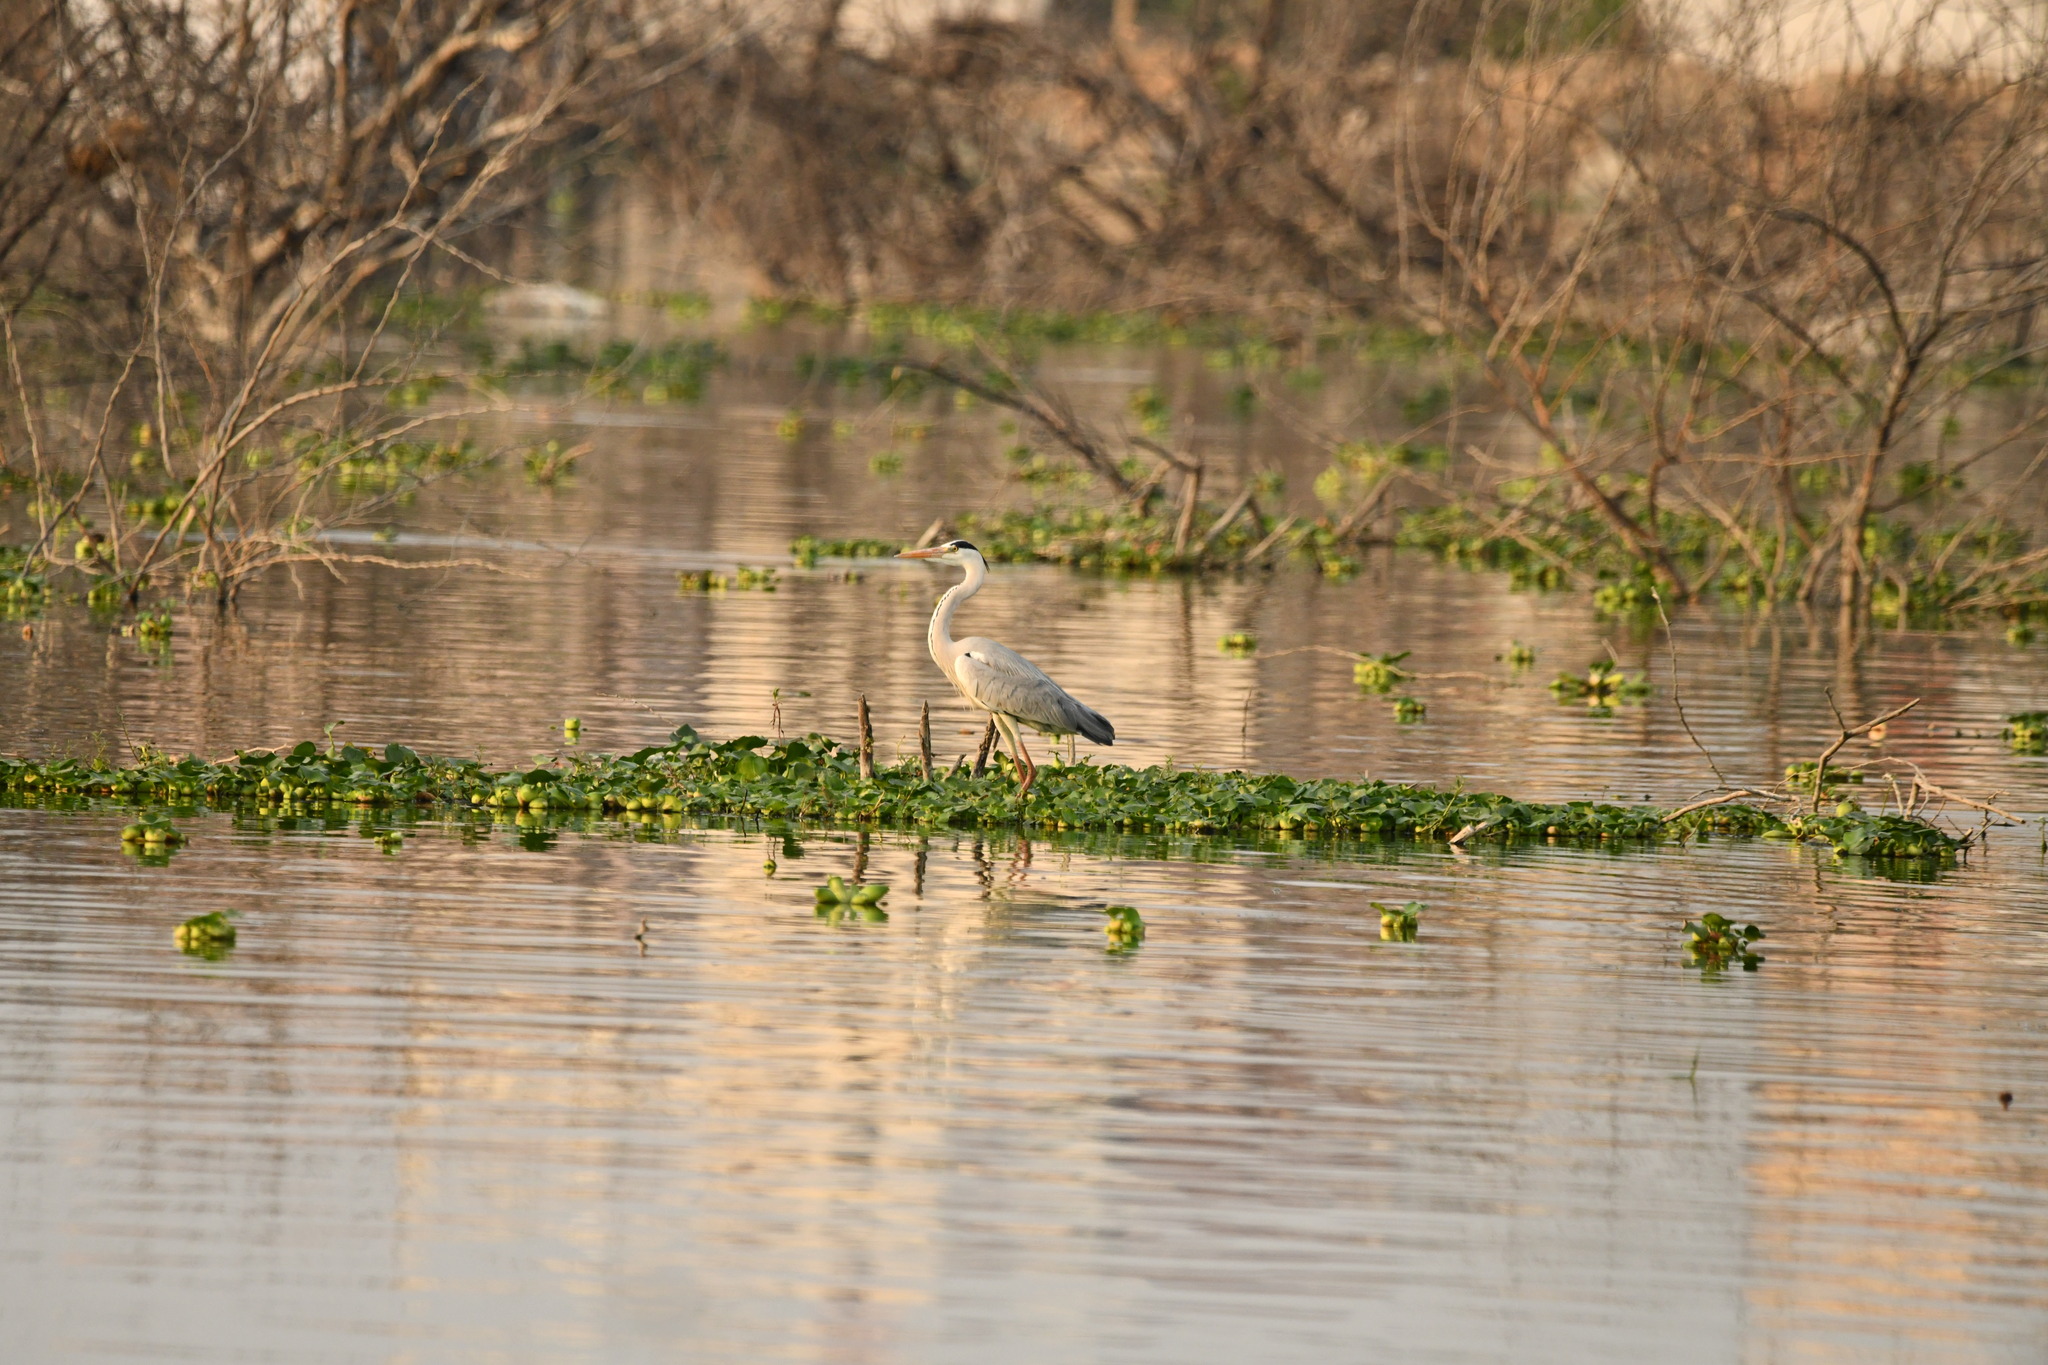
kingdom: Animalia
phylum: Chordata
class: Aves
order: Pelecaniformes
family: Ardeidae
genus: Ardea
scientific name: Ardea cinerea
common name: Grey heron
